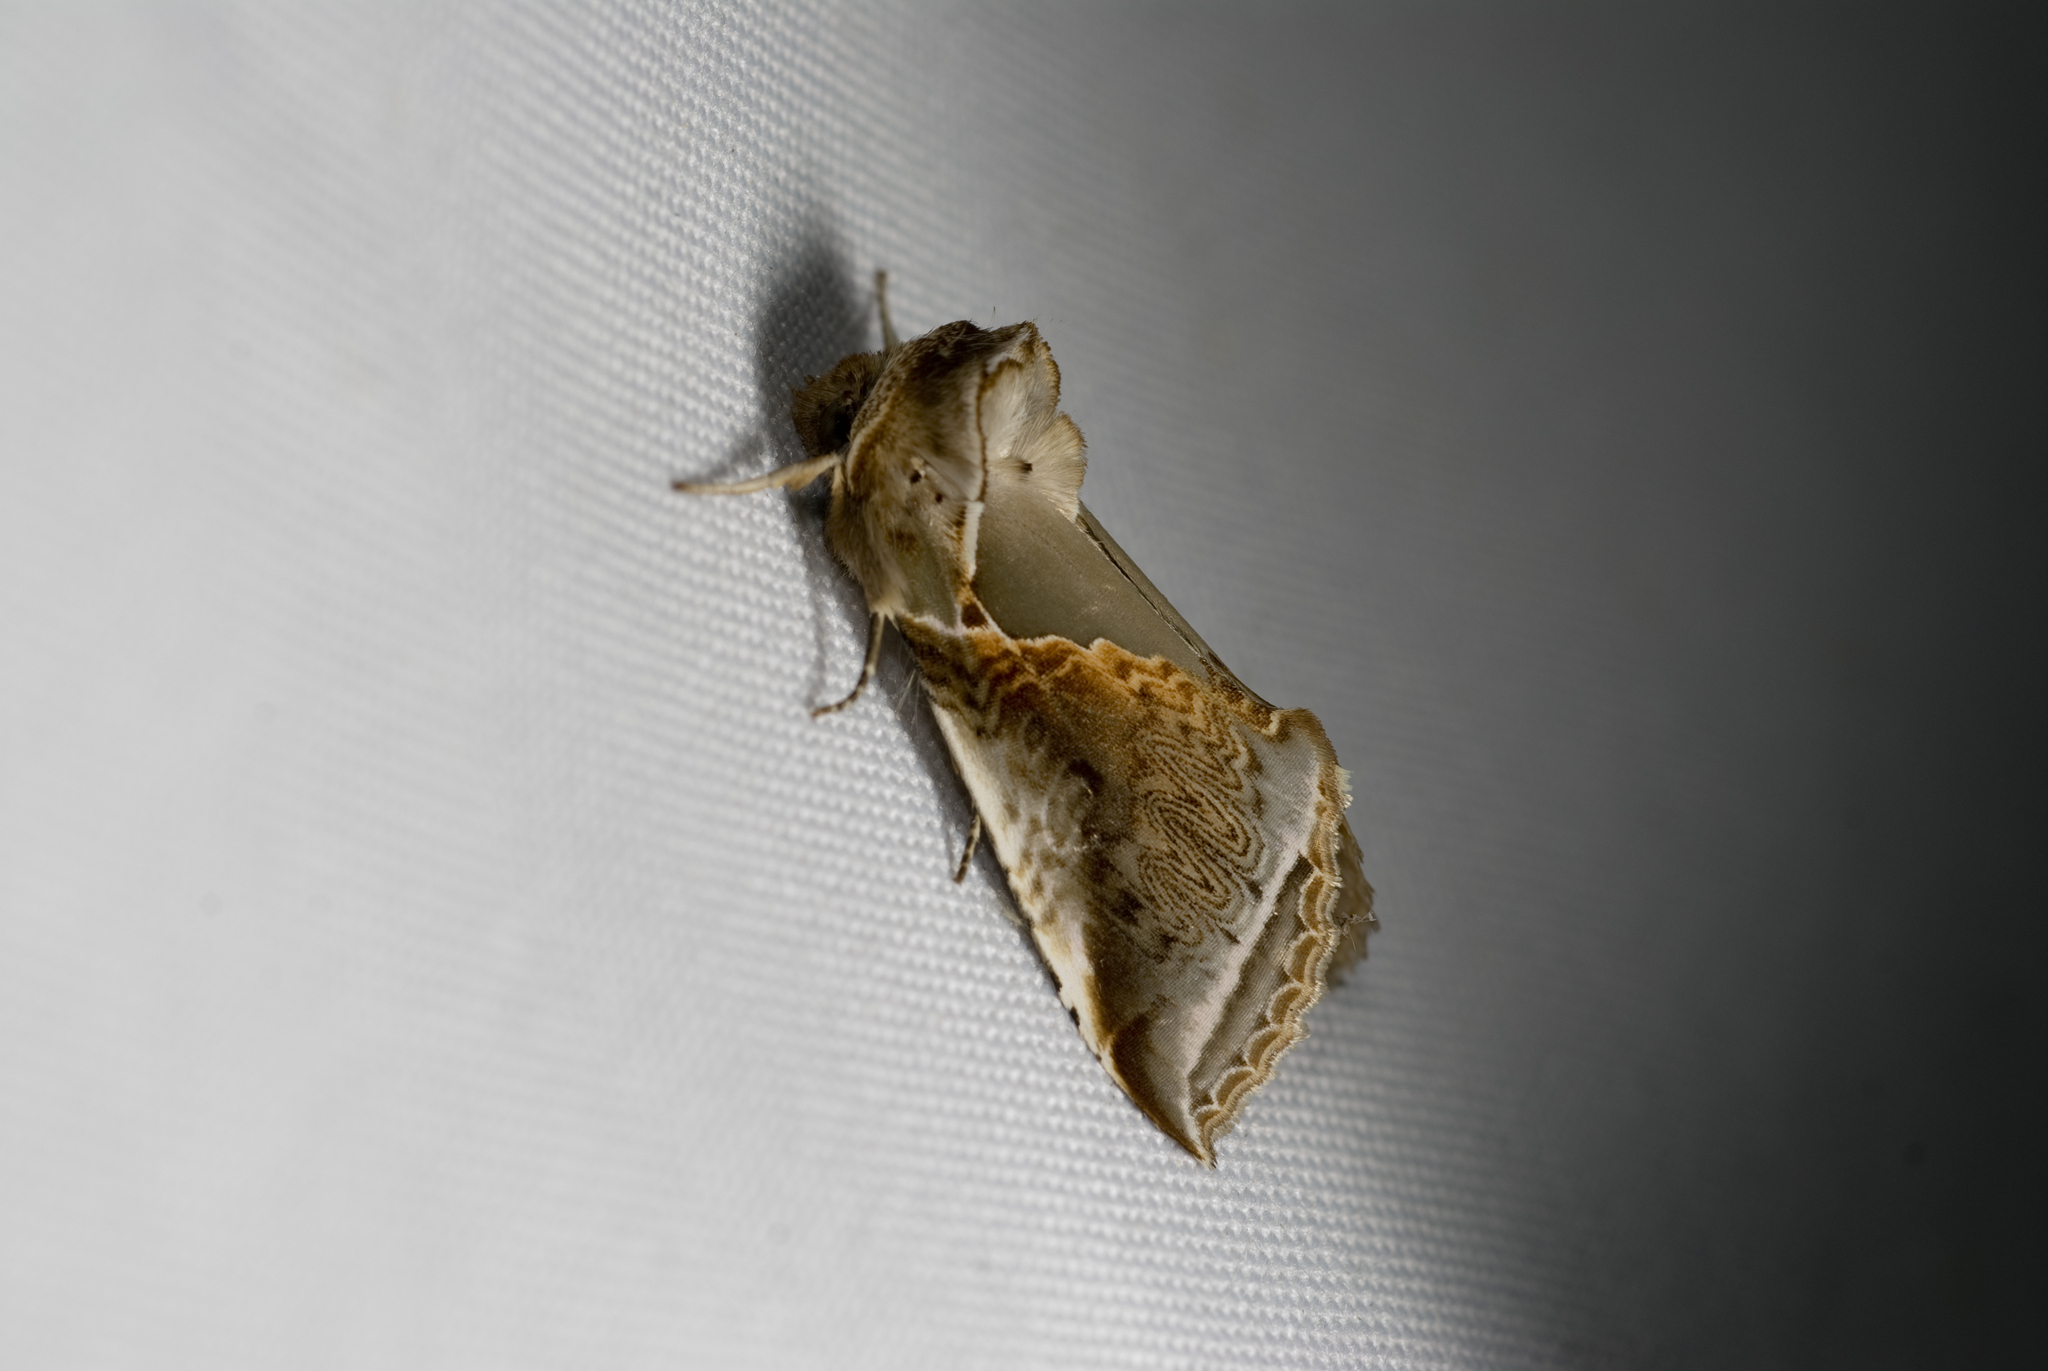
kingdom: Animalia
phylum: Arthropoda
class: Insecta
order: Lepidoptera
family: Drepanidae
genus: Habrosyne
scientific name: Habrosyne indica
